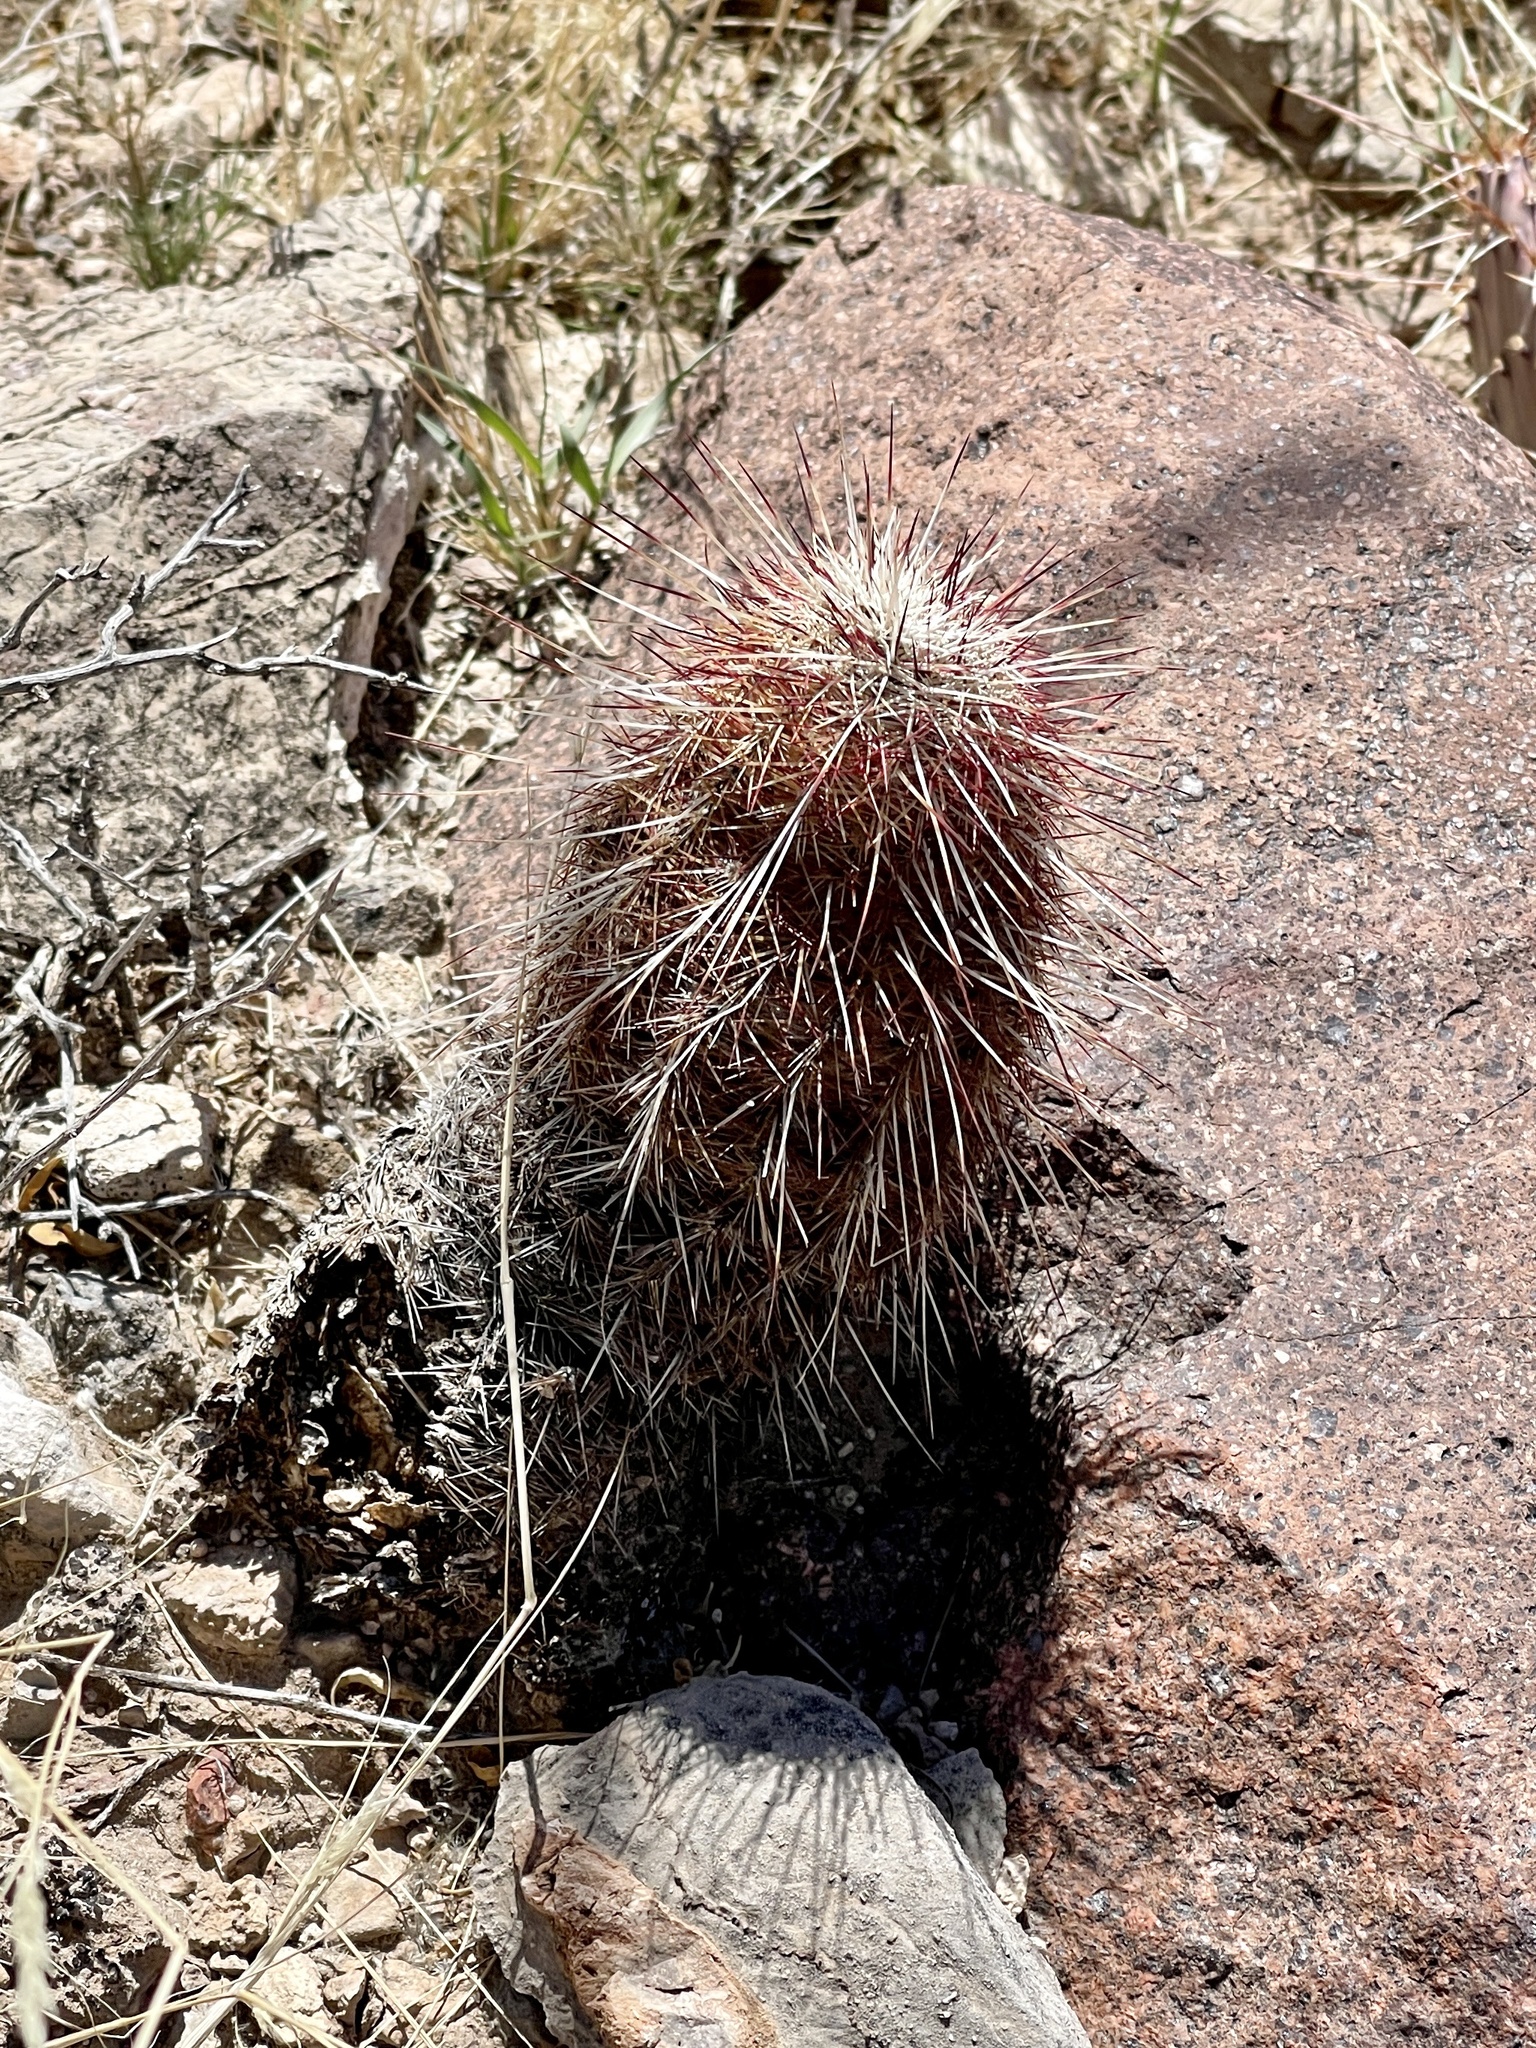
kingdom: Plantae
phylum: Tracheophyta
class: Magnoliopsida
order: Caryophyllales
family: Cactaceae
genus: Echinocereus
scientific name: Echinocereus viridiflorus
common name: Nylon hedgehog cactus
